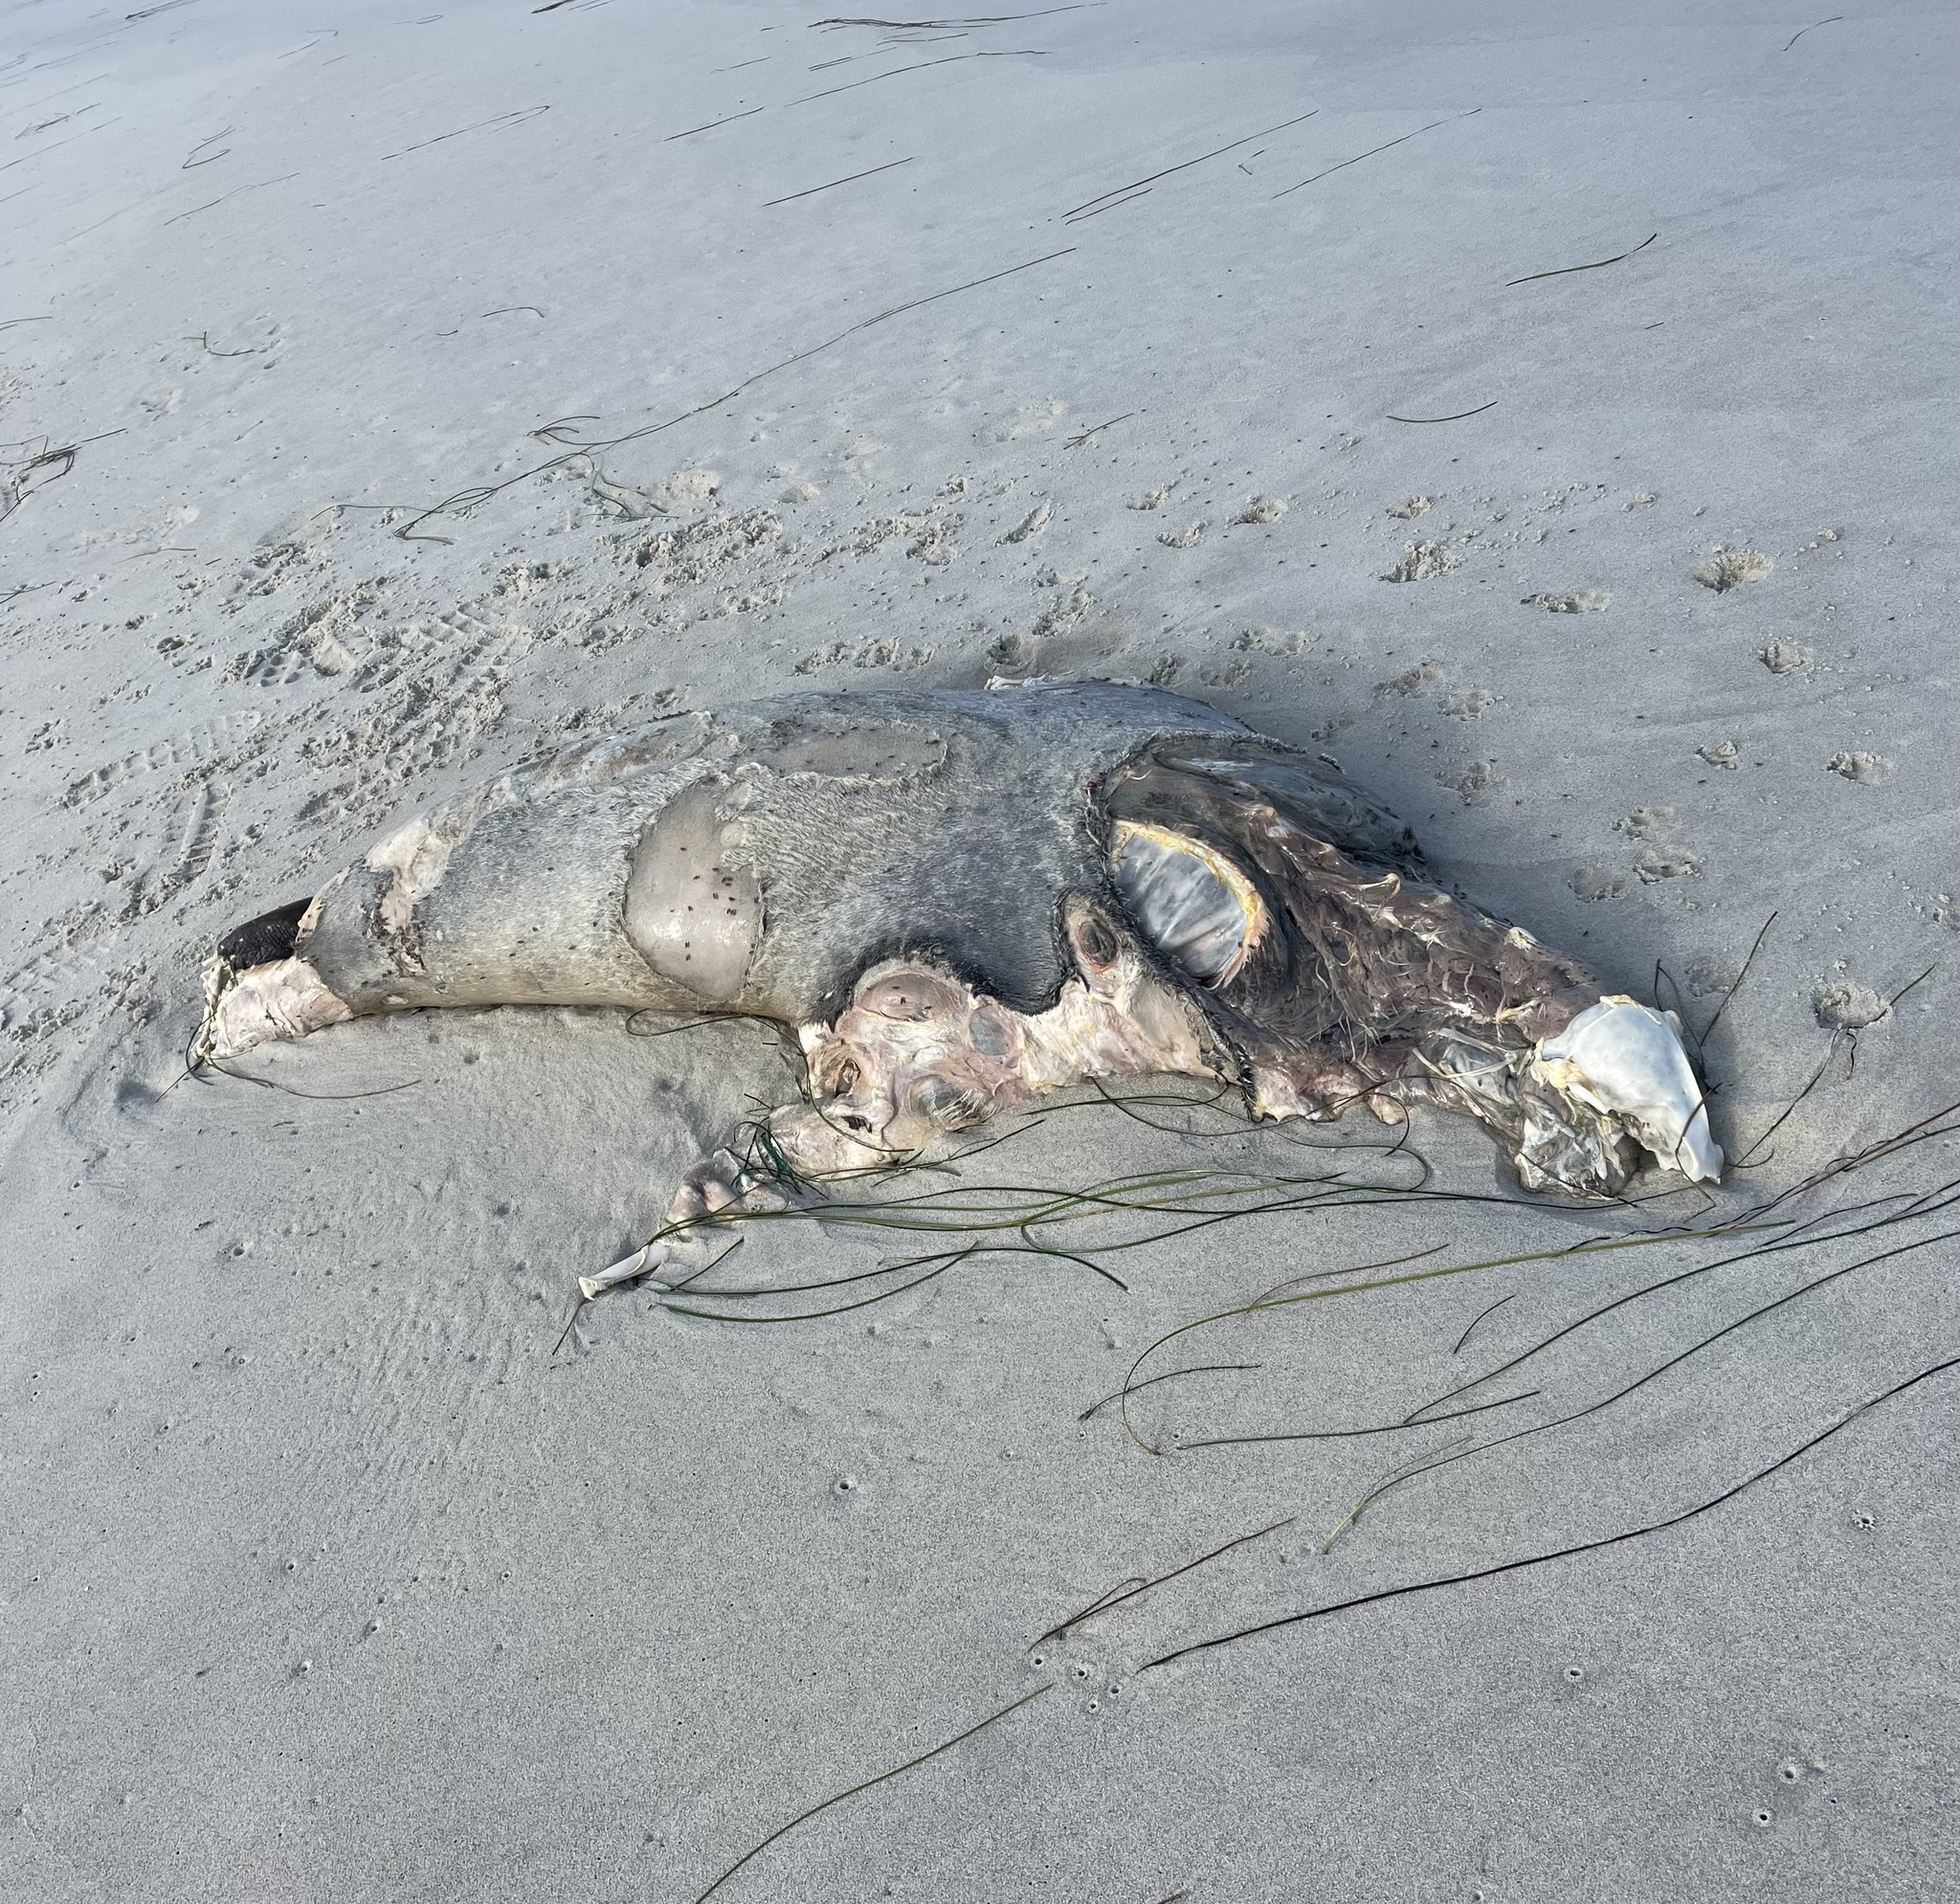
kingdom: Animalia
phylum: Chordata
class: Mammalia
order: Carnivora
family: Otariidae
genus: Zalophus
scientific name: Zalophus californianus
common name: California sea lion
